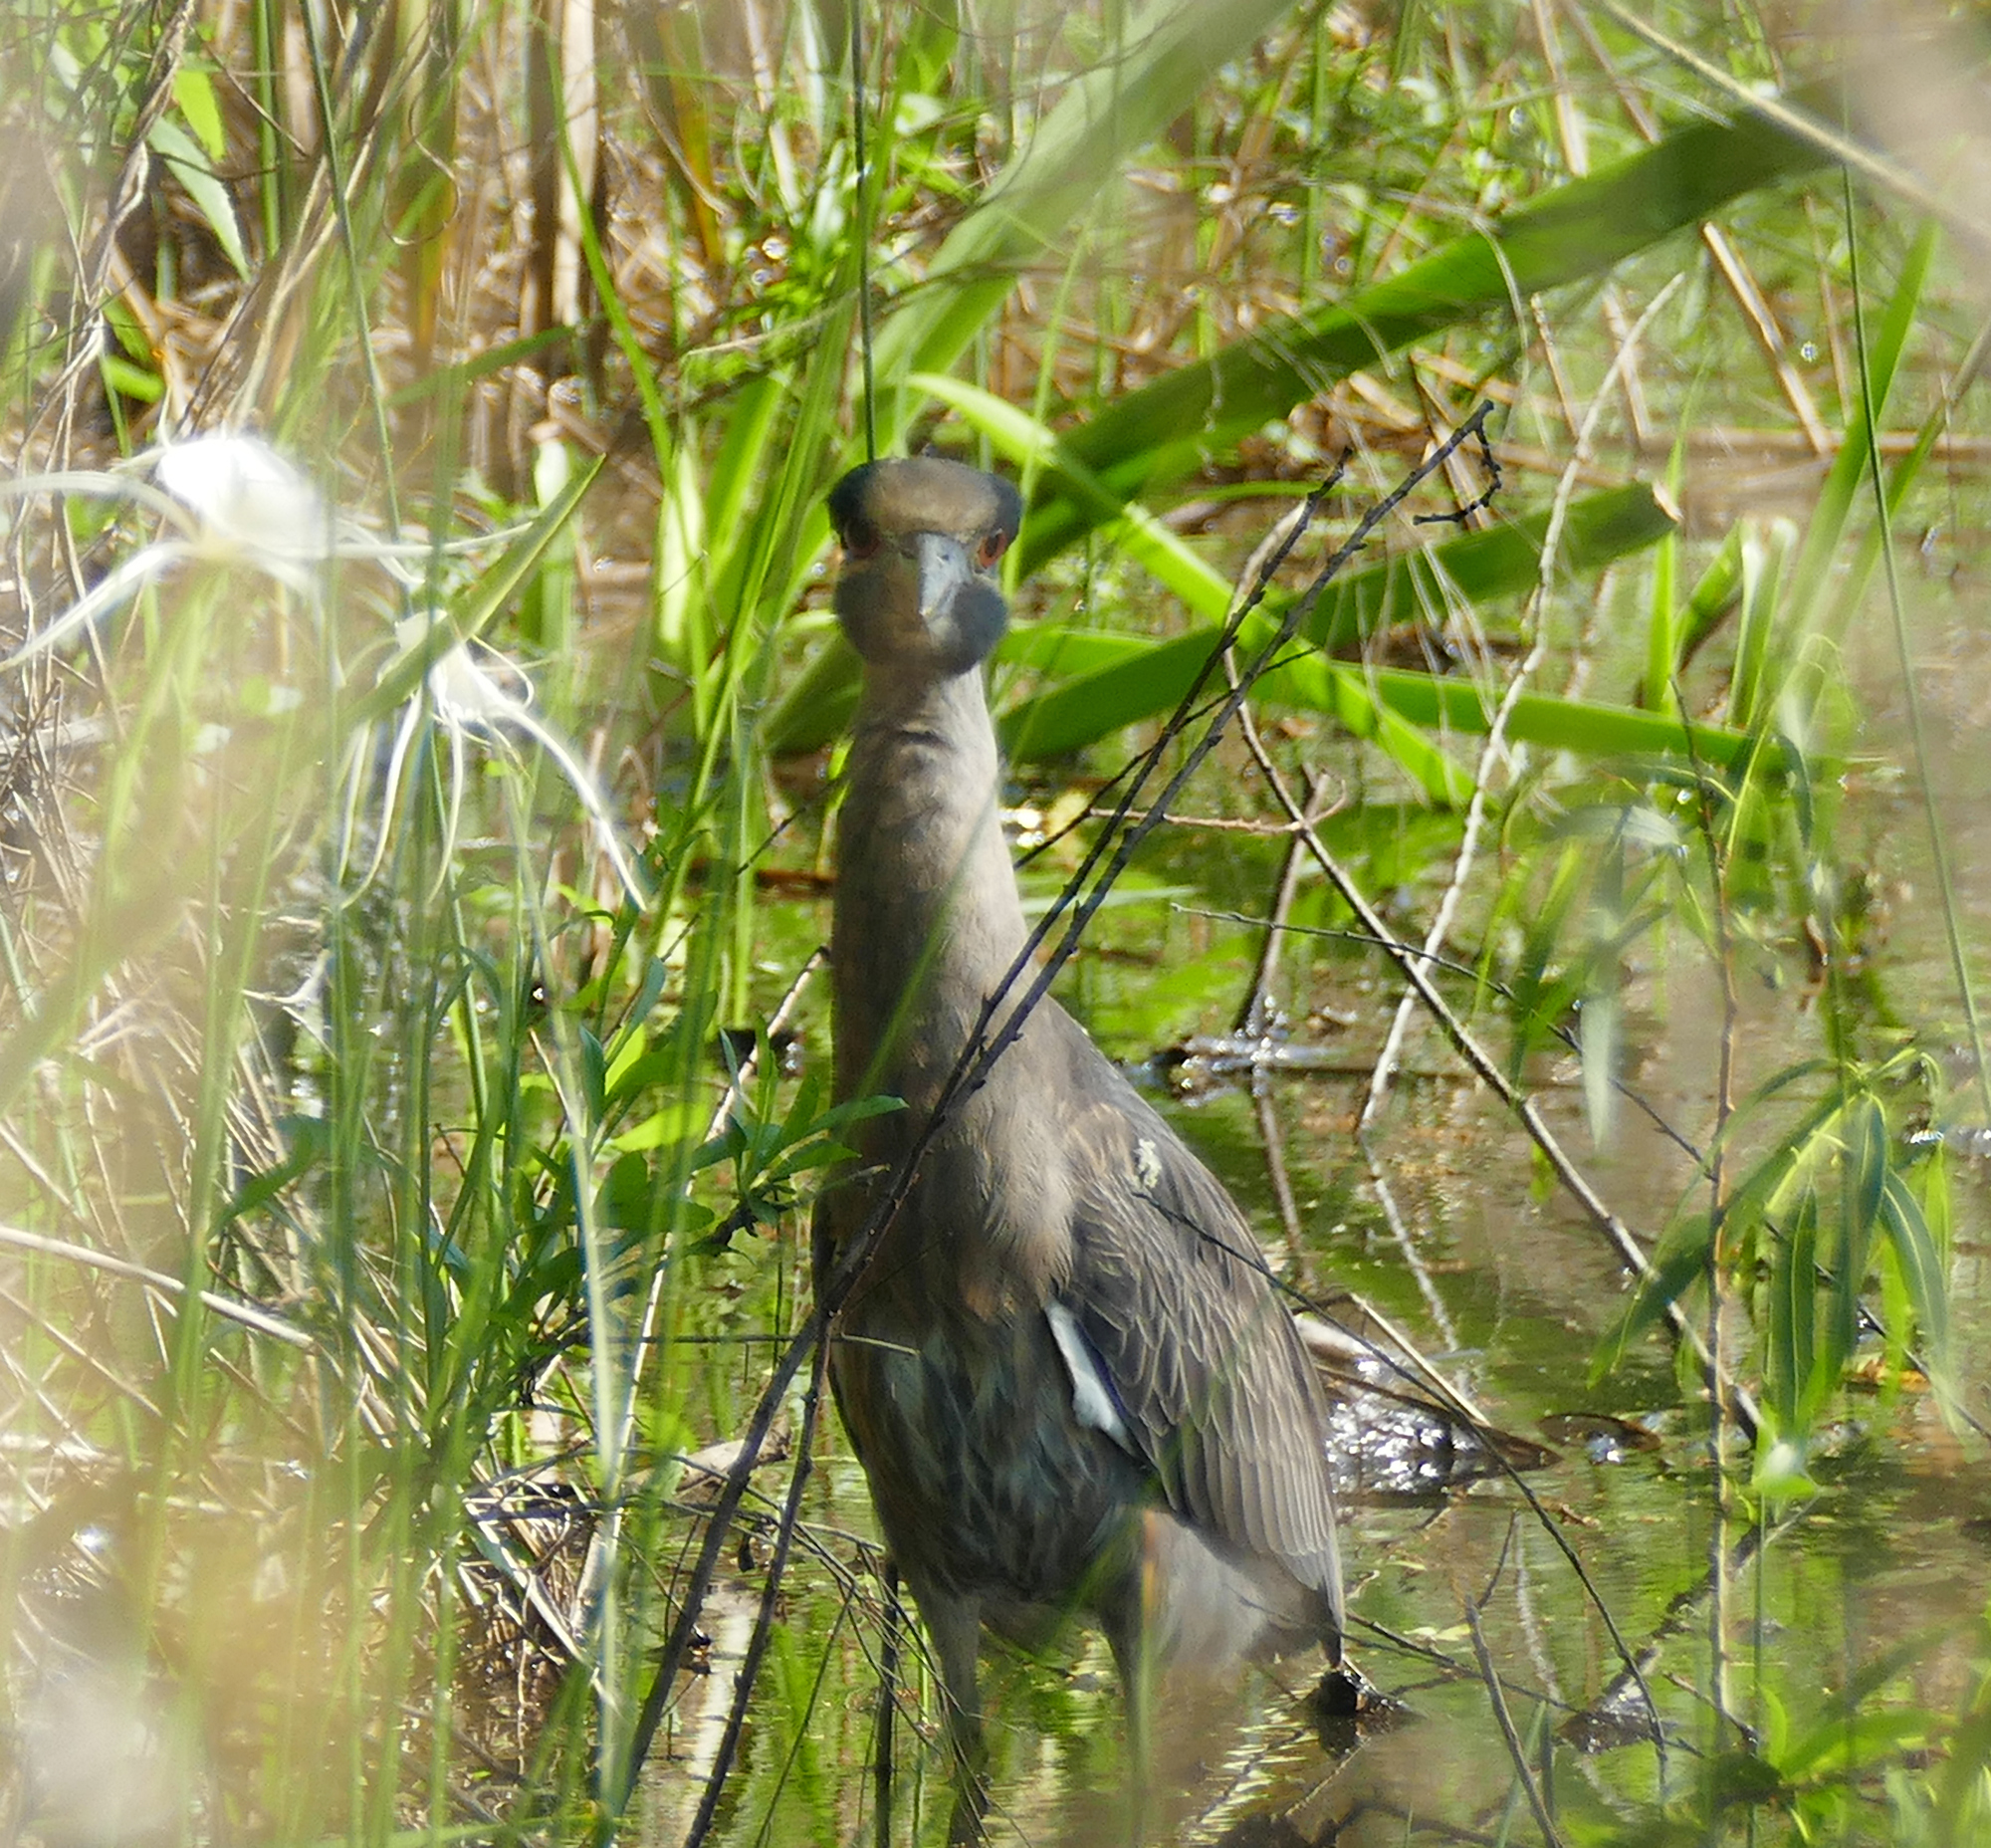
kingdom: Animalia
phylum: Chordata
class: Aves
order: Pelecaniformes
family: Ardeidae
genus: Nyctanassa
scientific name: Nyctanassa violacea
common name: Yellow-crowned night heron
